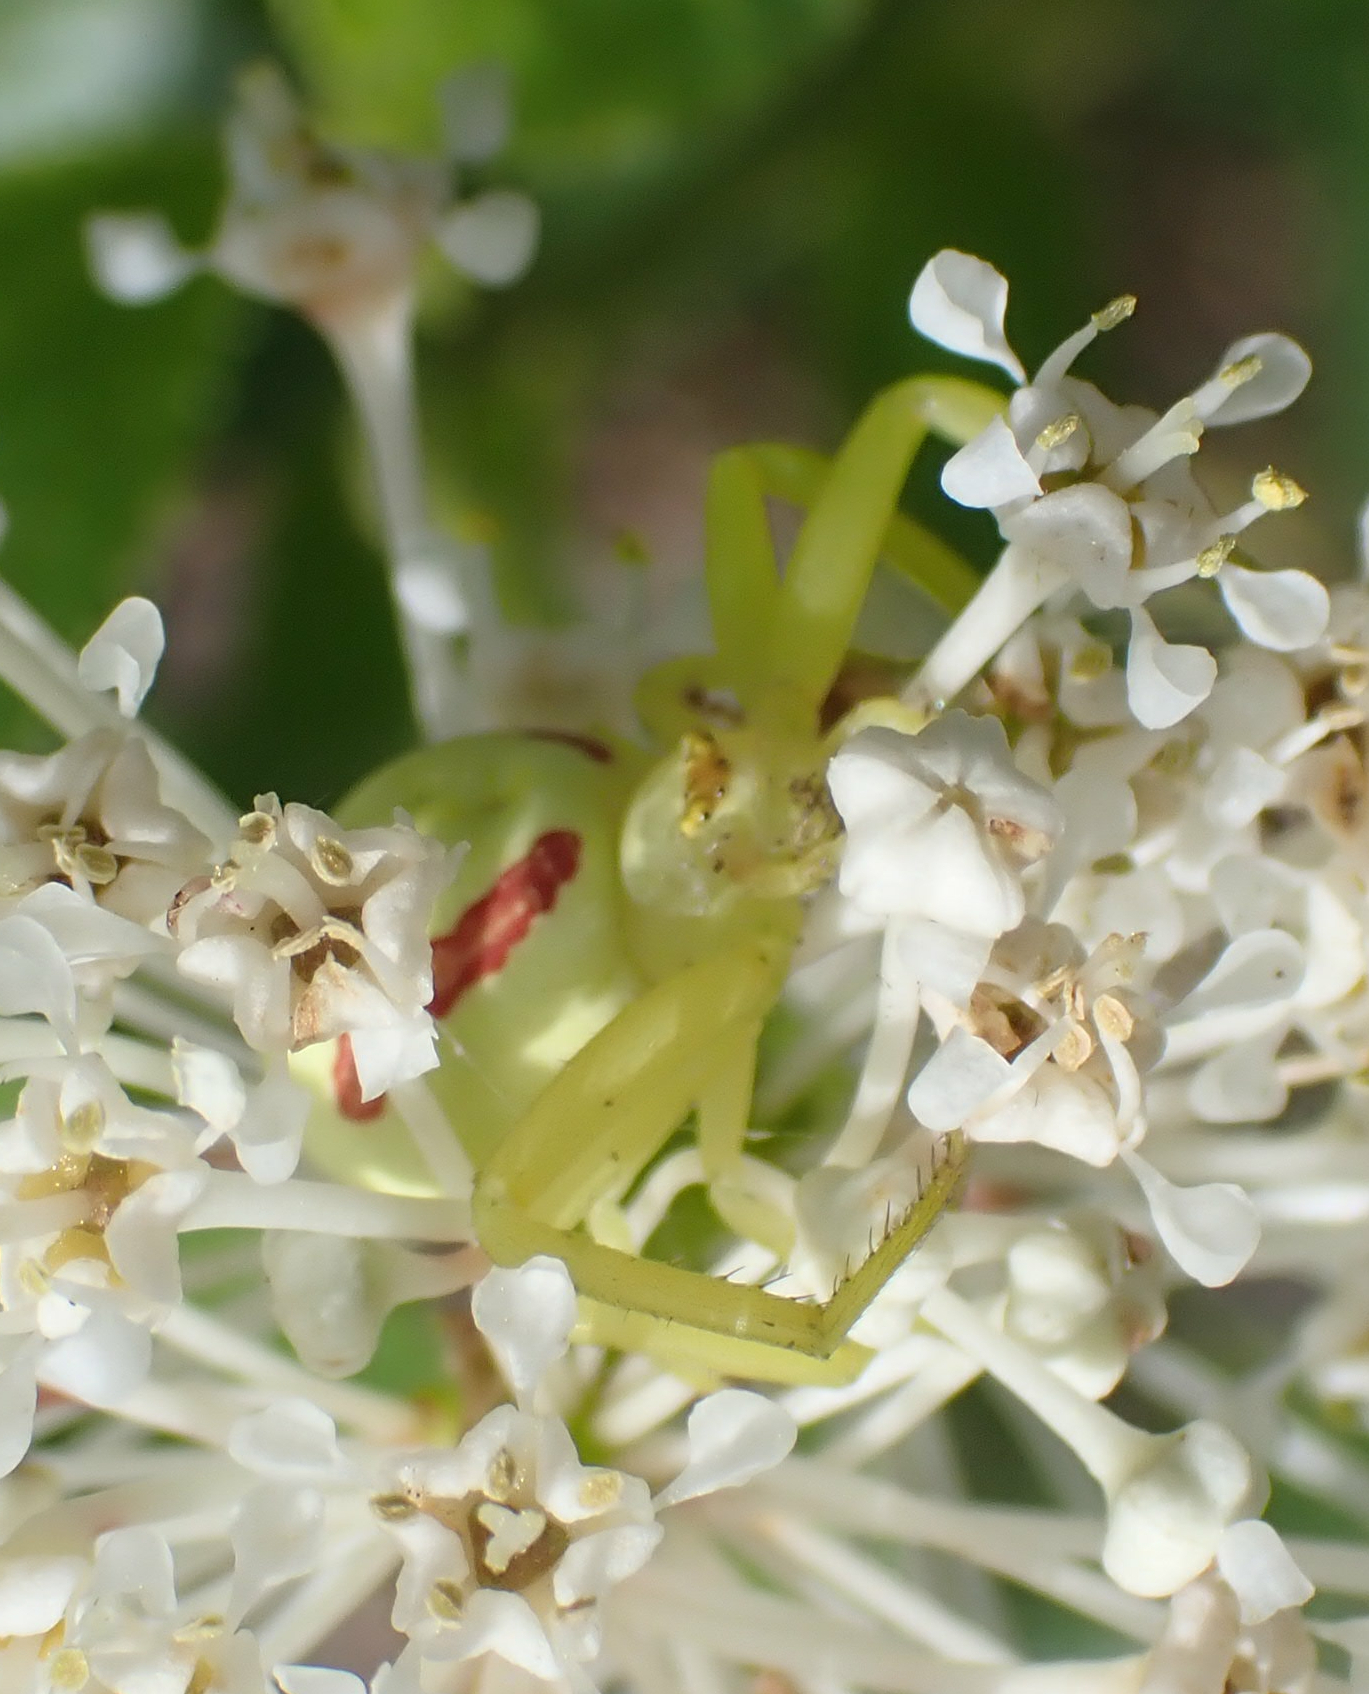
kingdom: Animalia
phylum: Arthropoda
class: Arachnida
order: Araneae
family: Thomisidae
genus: Misumena
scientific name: Misumena vatia
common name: Goldenrod crab spider
